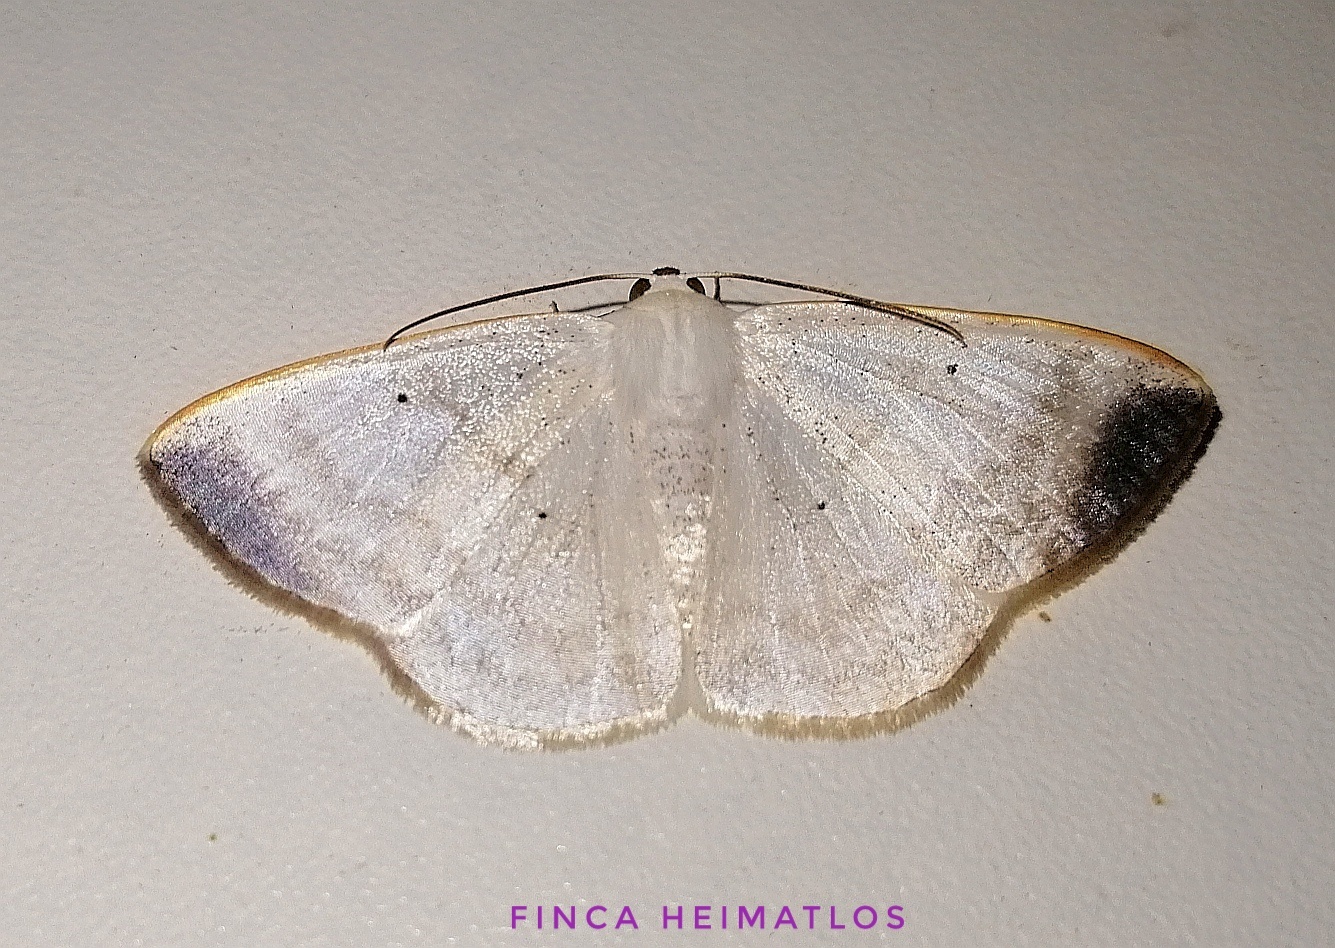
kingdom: Animalia
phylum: Arthropoda
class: Insecta
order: Lepidoptera
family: Geometridae
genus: Lomographa
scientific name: Lomographa nubimargo
